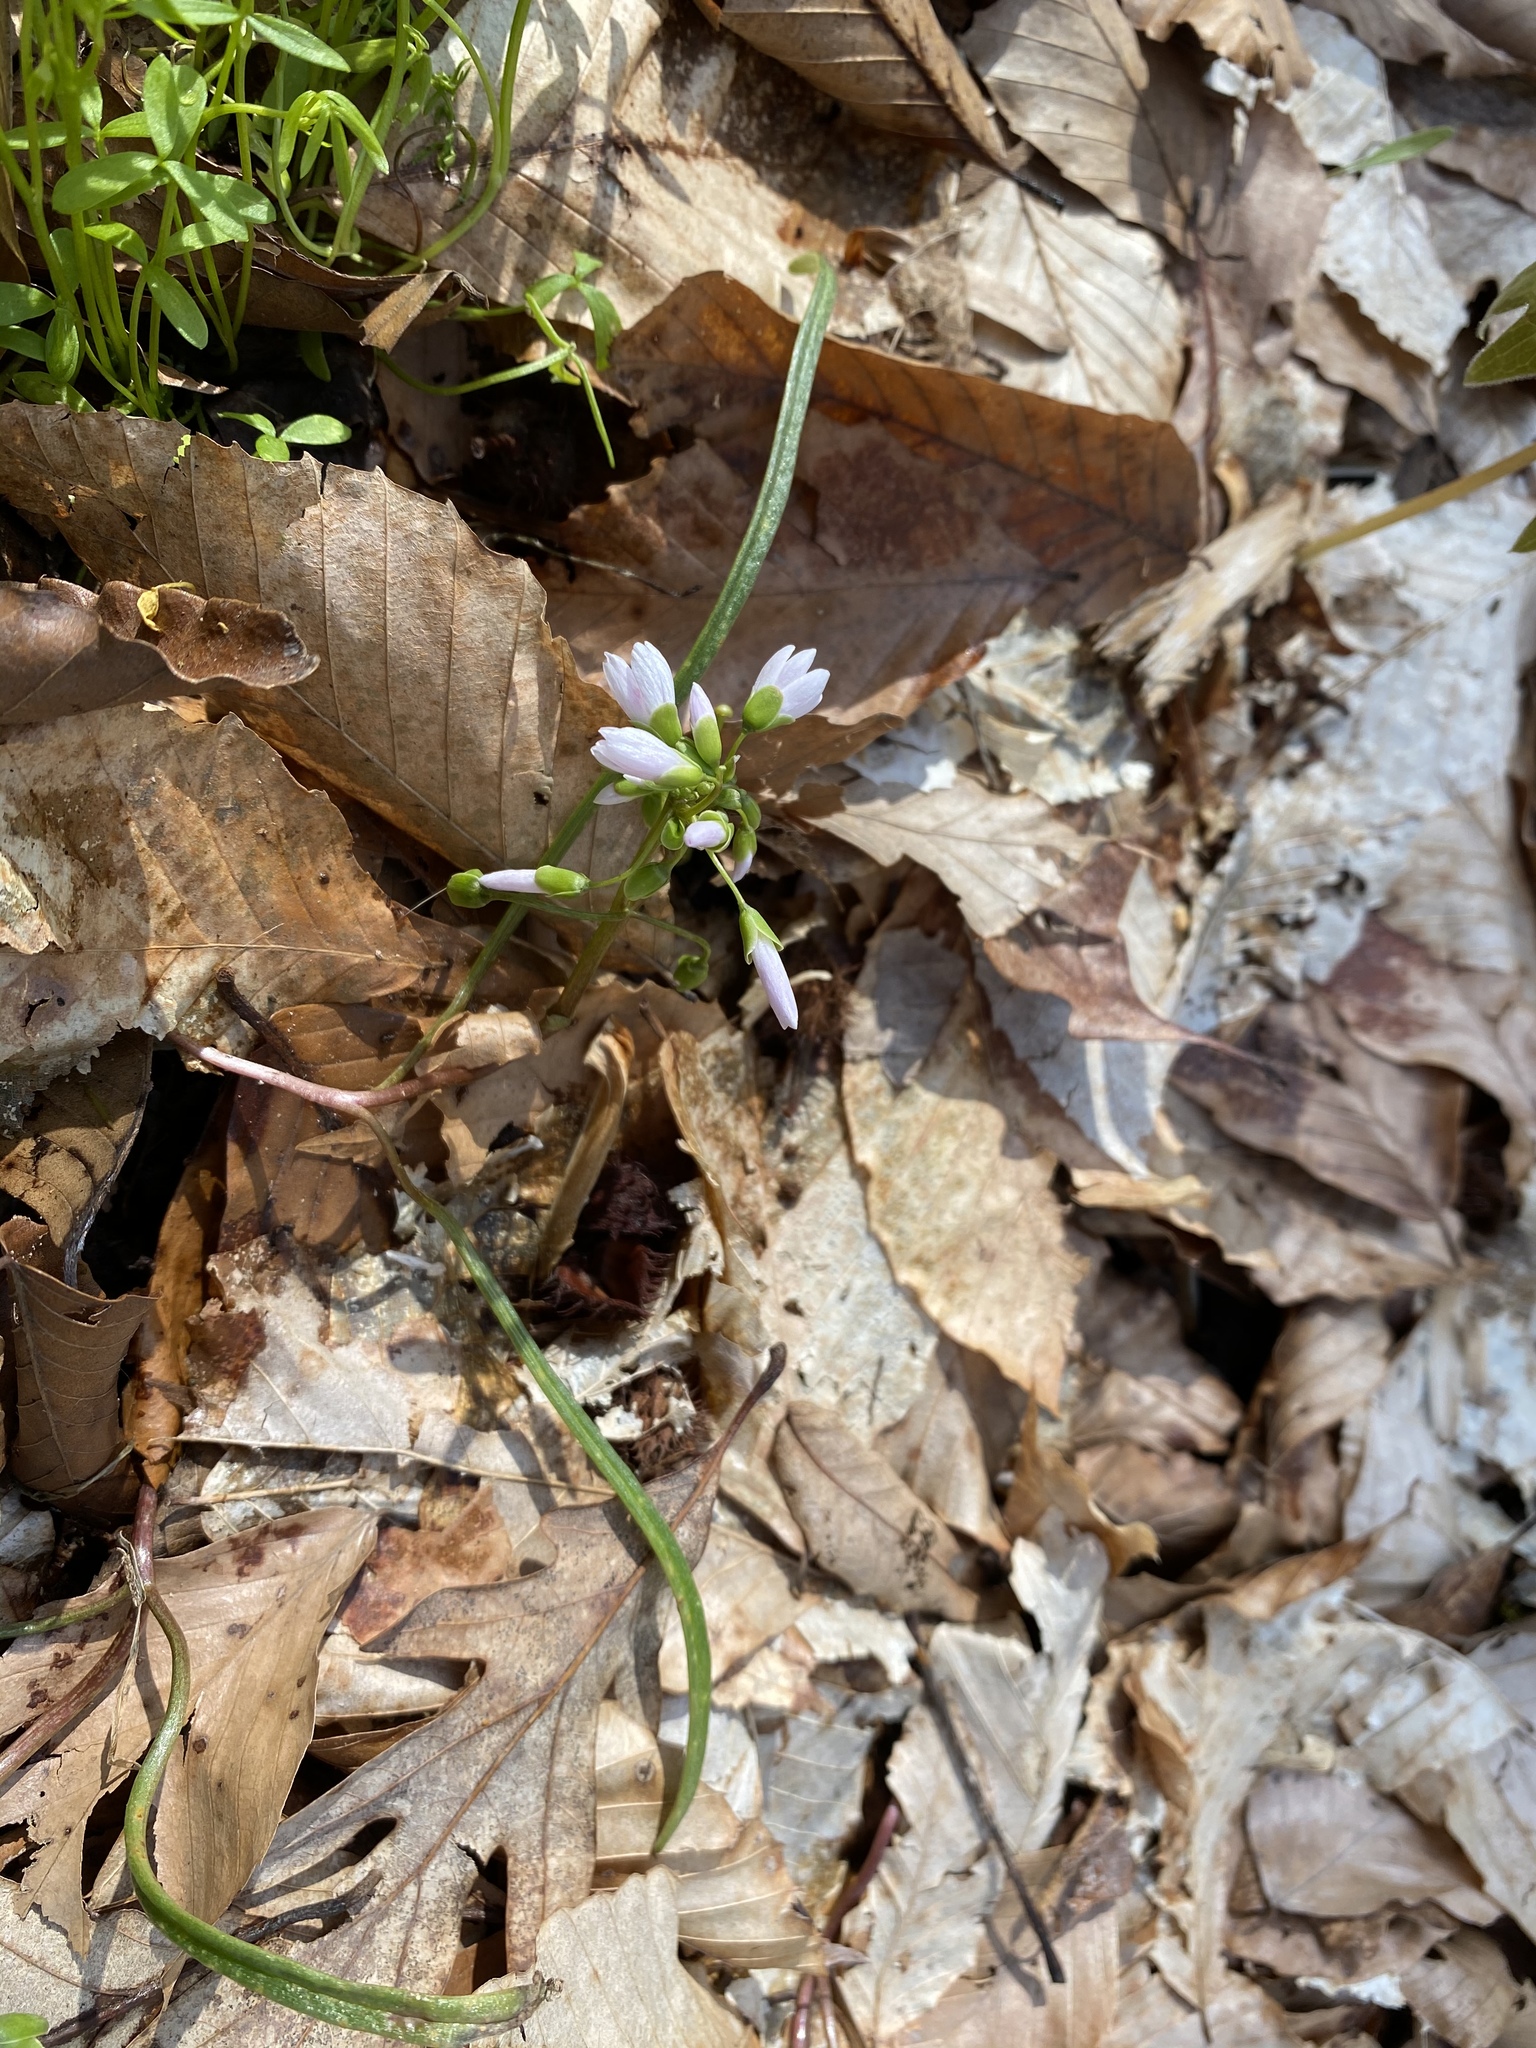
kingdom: Plantae
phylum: Tracheophyta
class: Magnoliopsida
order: Caryophyllales
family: Montiaceae
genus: Claytonia
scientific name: Claytonia virginica
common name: Virginia springbeauty
